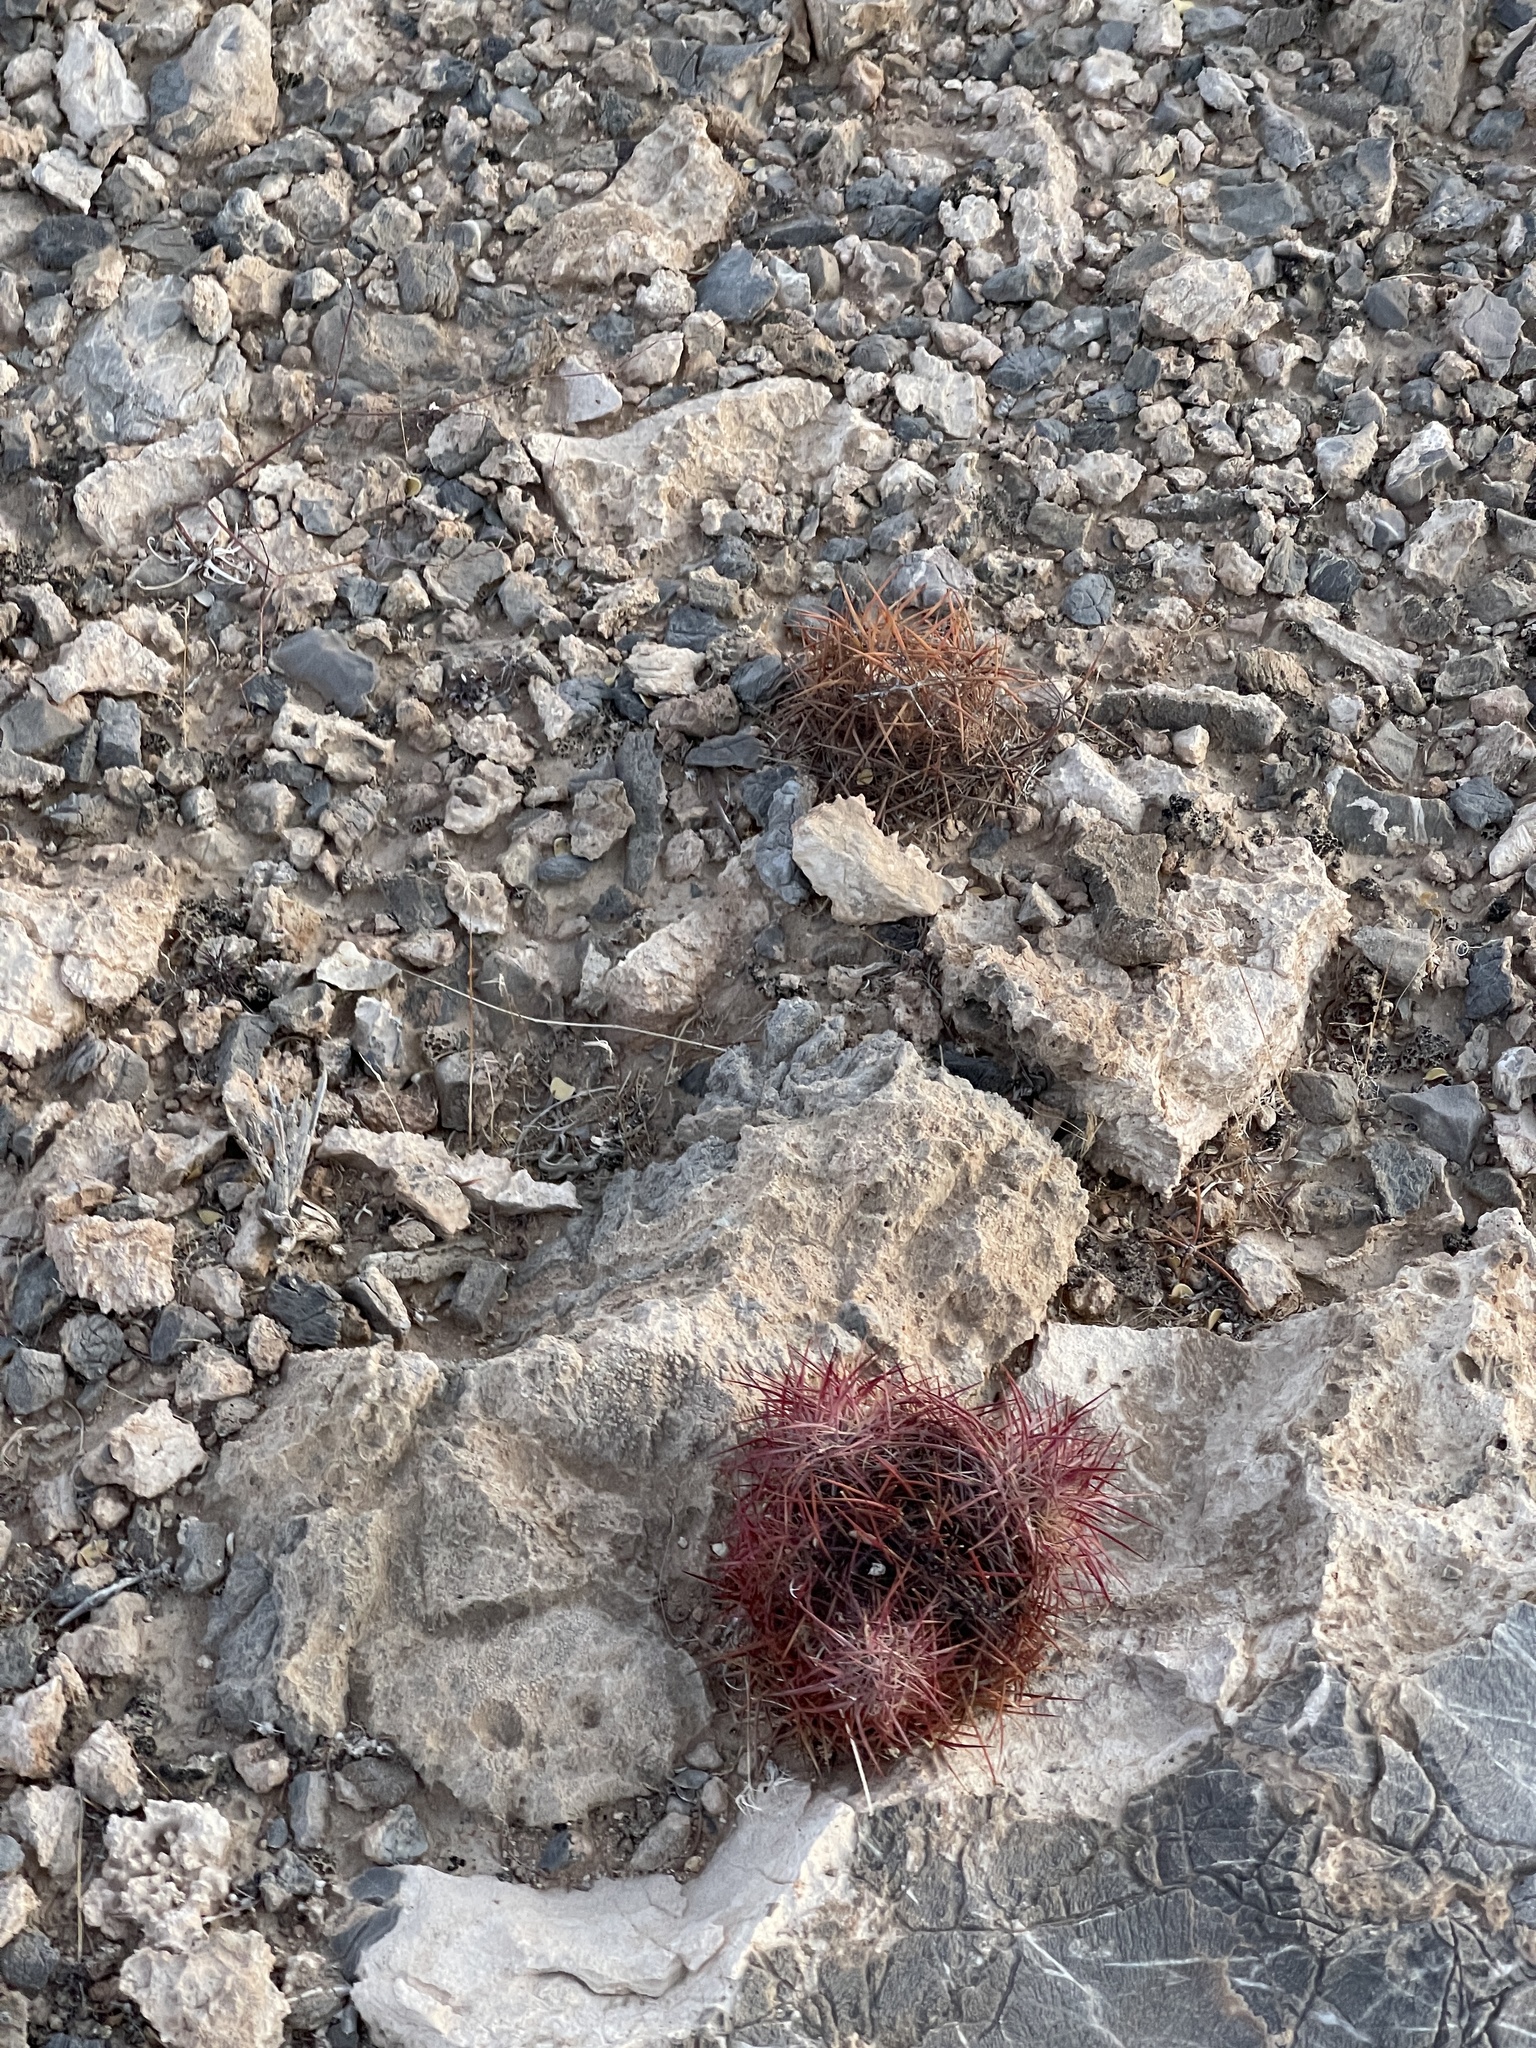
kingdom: Plantae
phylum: Tracheophyta
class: Magnoliopsida
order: Caryophyllales
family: Cactaceae
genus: Sclerocactus
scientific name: Sclerocactus johnsonii
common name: Eight-spine fishhook cactus
